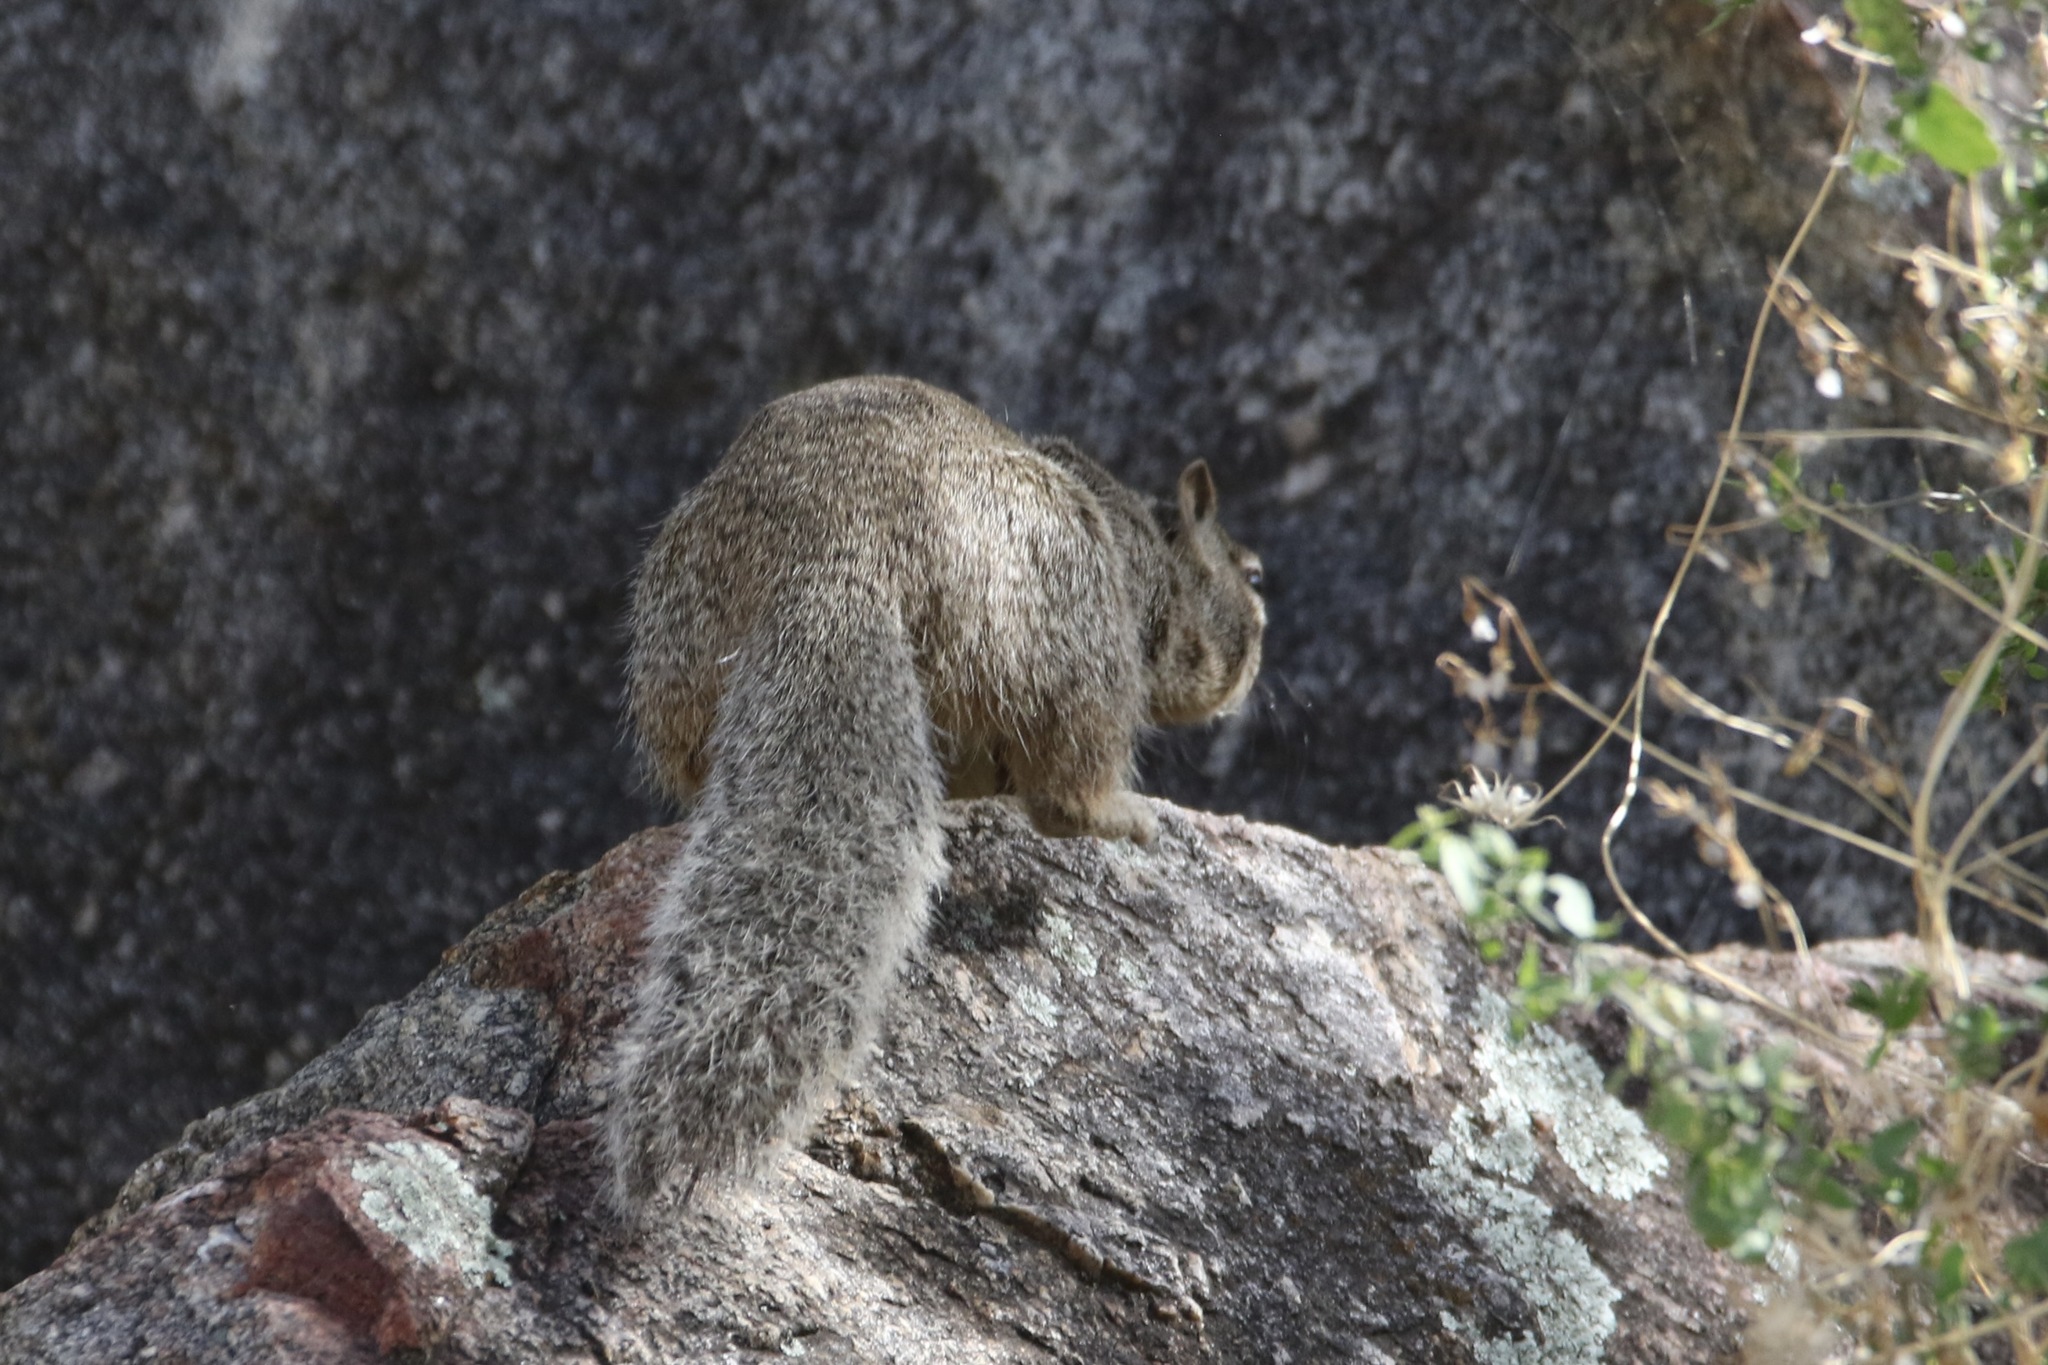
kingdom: Animalia
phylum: Chordata
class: Mammalia
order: Rodentia
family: Sciuridae
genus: Otospermophilus
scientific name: Otospermophilus variegatus
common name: Rock squirrel
